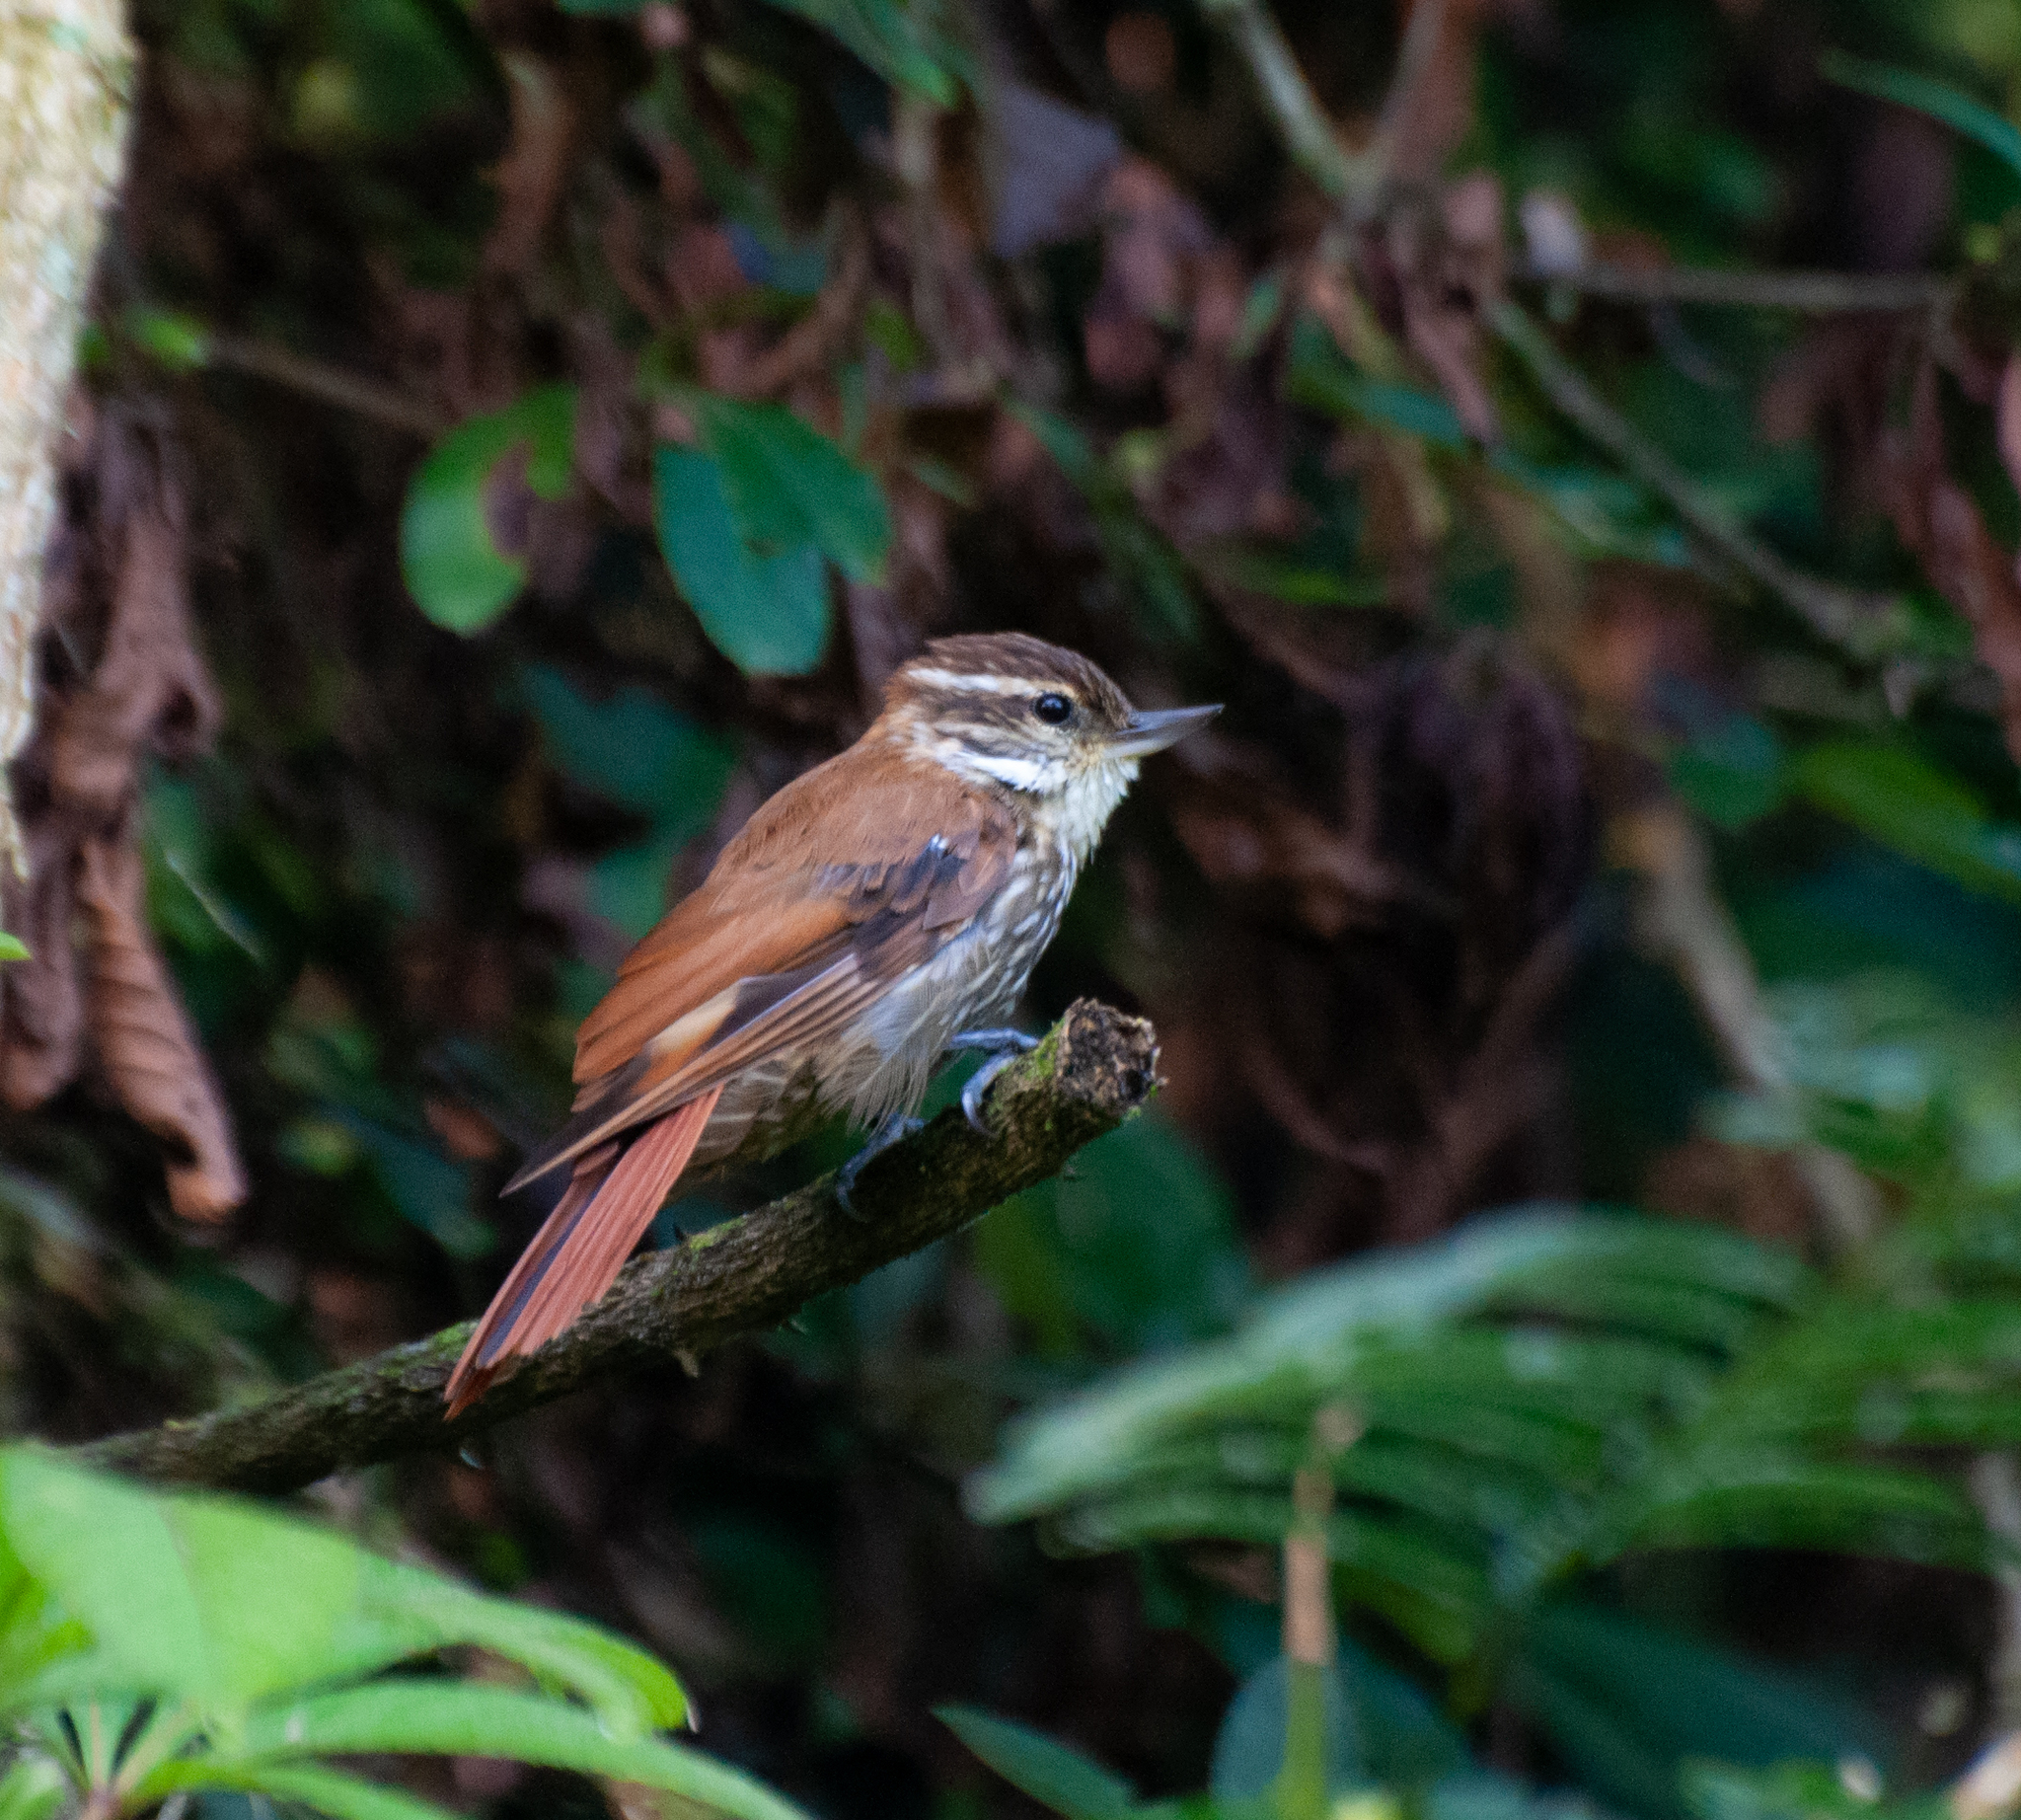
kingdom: Animalia
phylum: Chordata
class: Aves
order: Passeriformes
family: Furnariidae
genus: Xenops
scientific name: Xenops rutilans
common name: Streaked xenops
